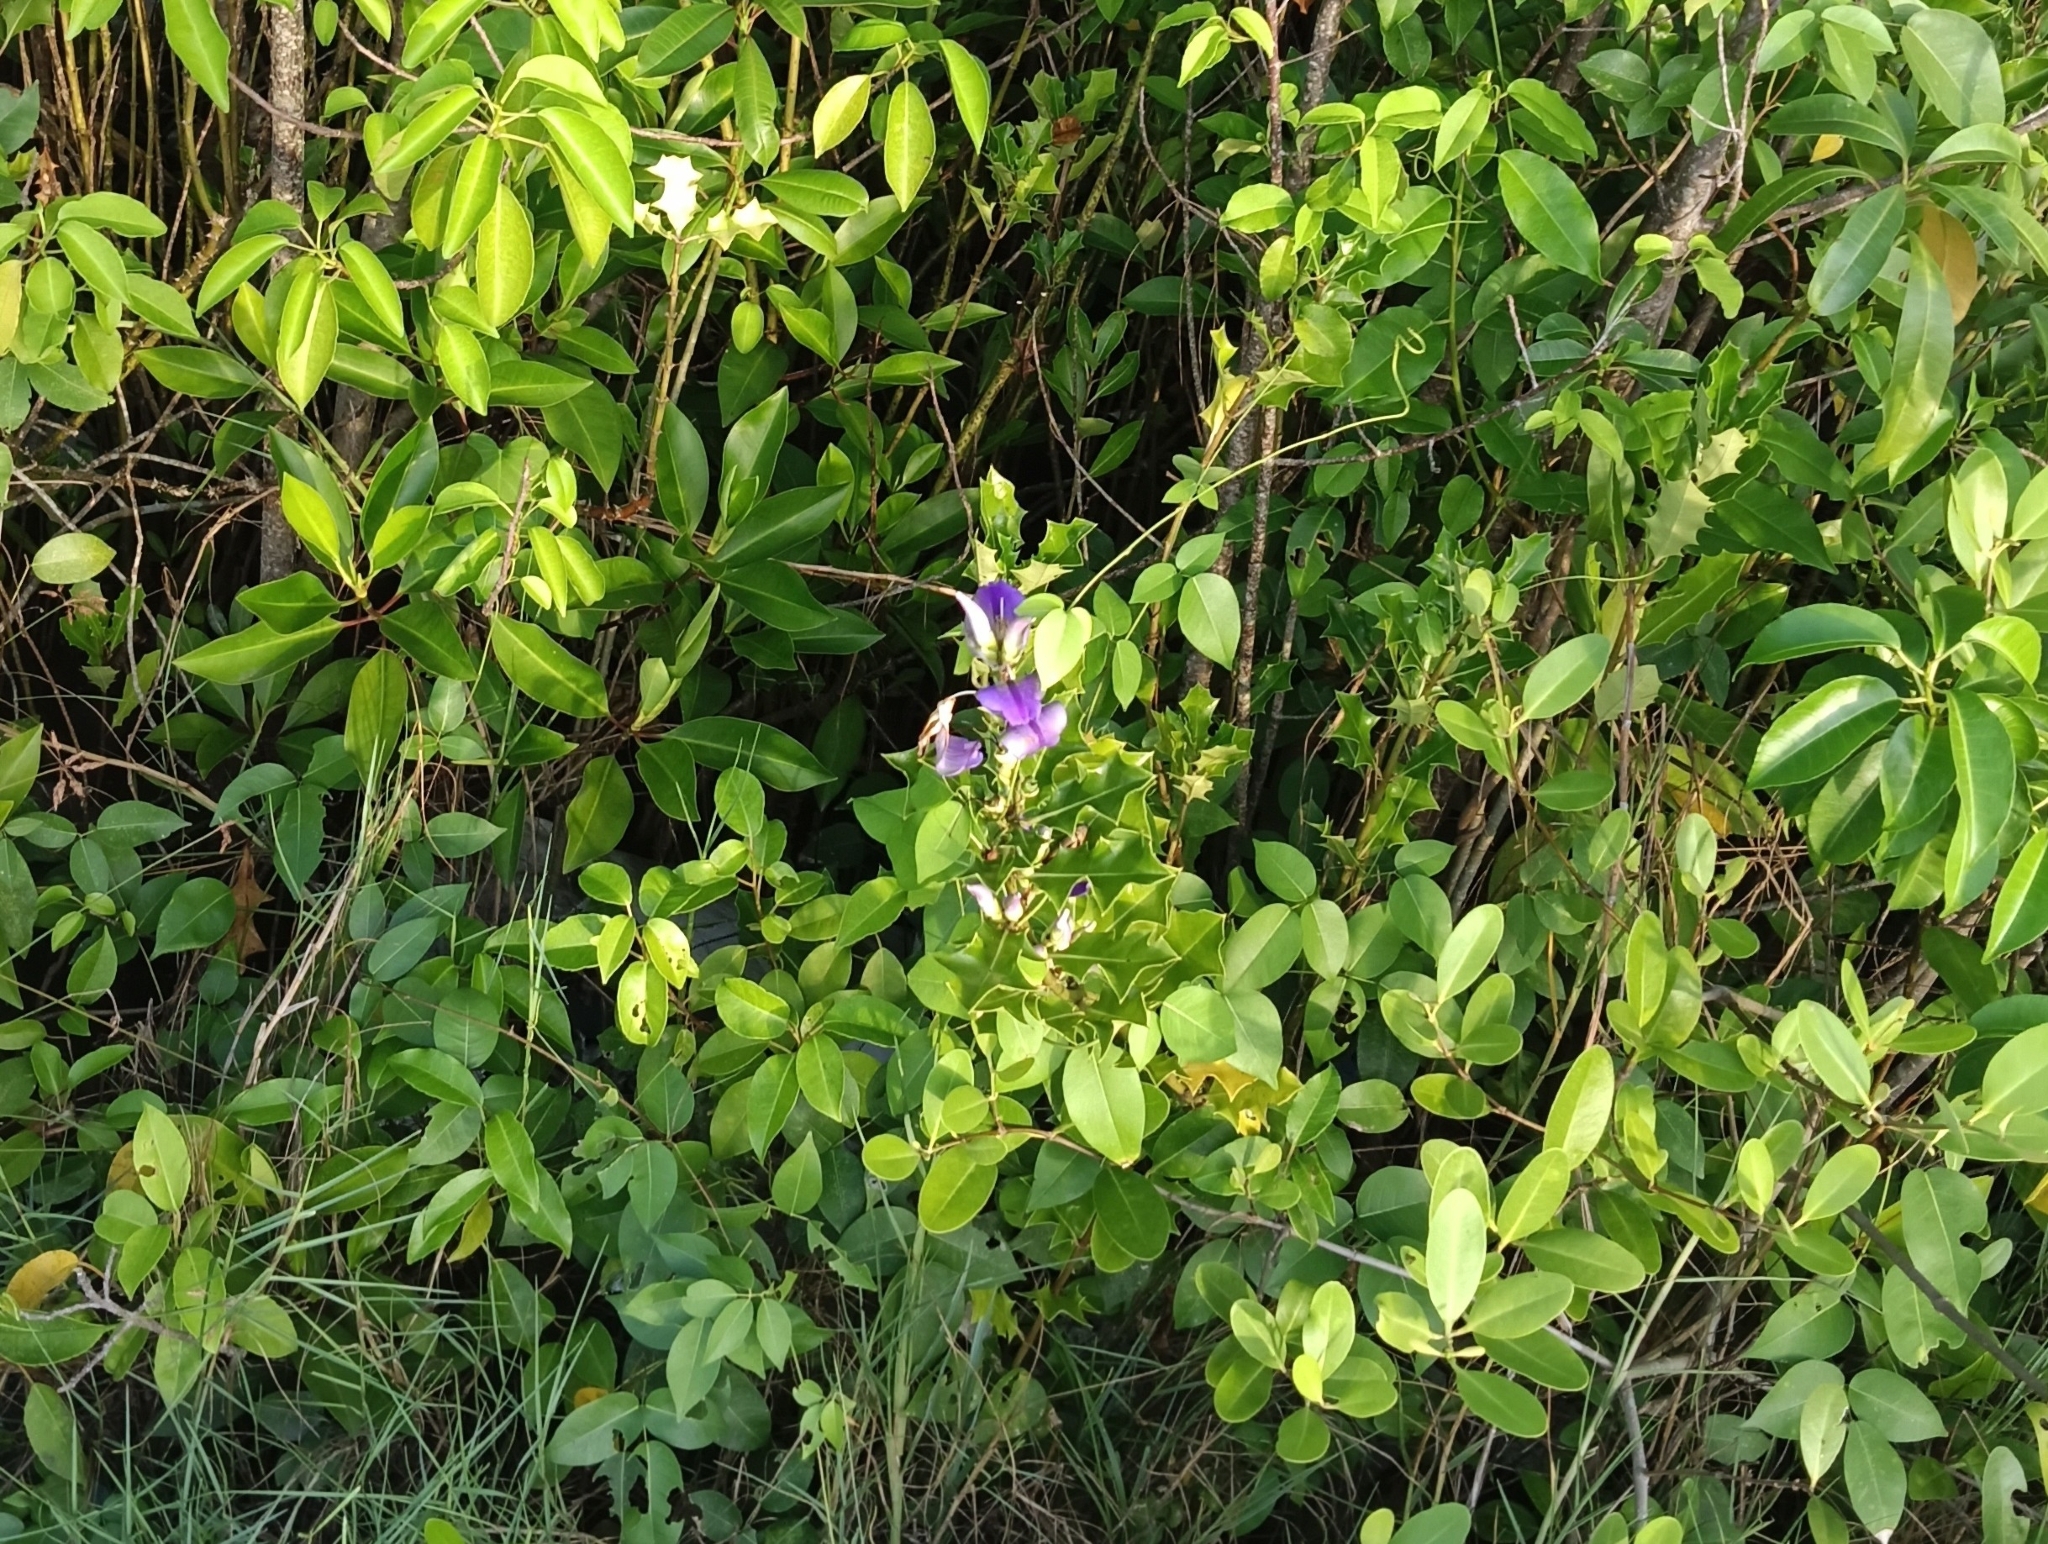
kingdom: Plantae
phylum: Tracheophyta
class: Magnoliopsida
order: Lamiales
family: Acanthaceae
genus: Acanthus
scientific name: Acanthus ilicifolius
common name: Holy mangrove
